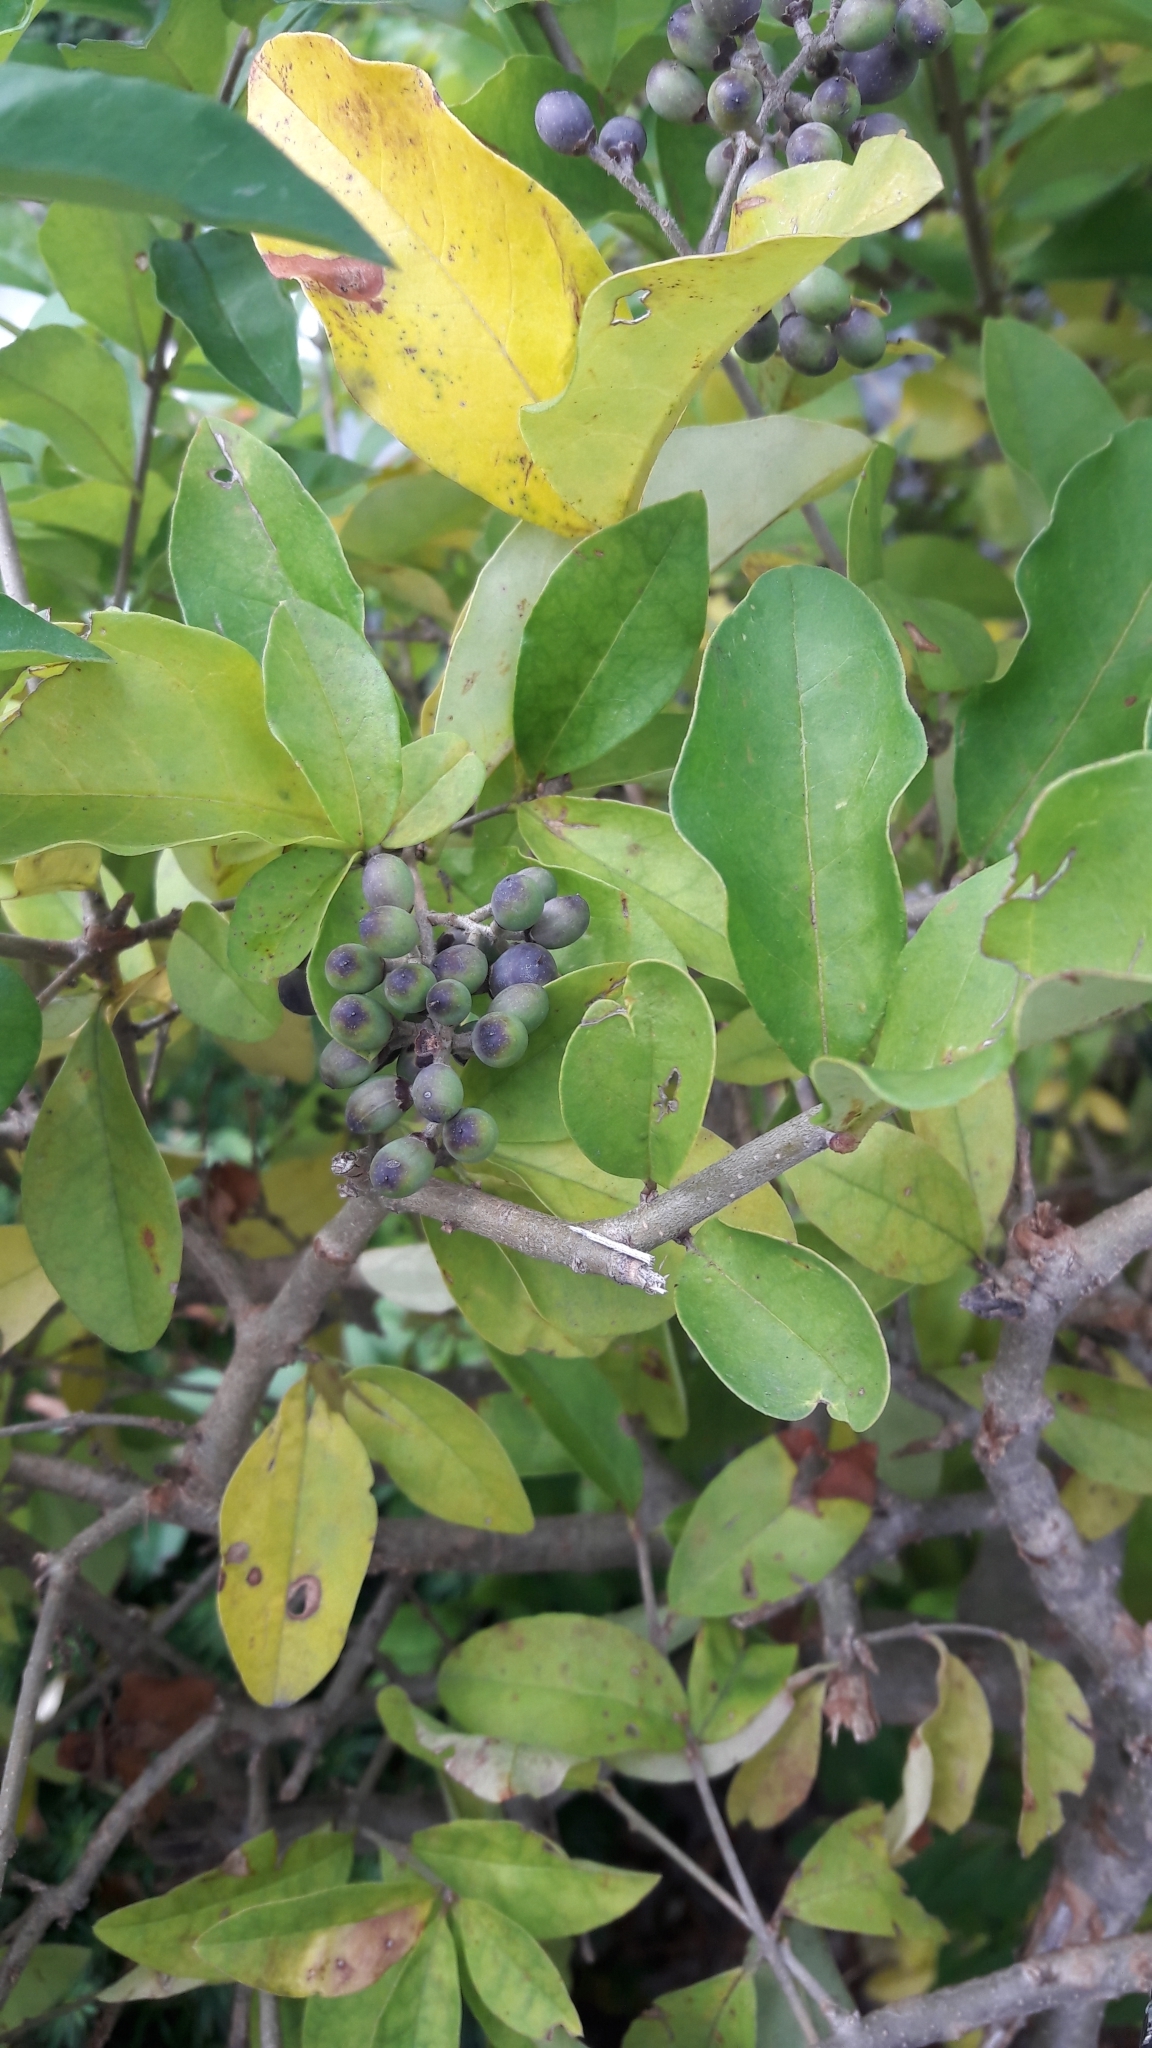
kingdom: Plantae
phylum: Tracheophyta
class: Magnoliopsida
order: Lamiales
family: Oleaceae
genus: Ligustrum
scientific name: Ligustrum obtusifolium
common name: Border privet
